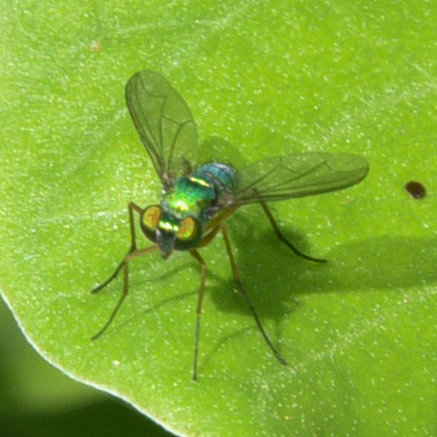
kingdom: Animalia
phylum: Arthropoda
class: Insecta
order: Diptera
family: Dolichopodidae
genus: Chrysosoma
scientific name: Chrysosoma globifer
